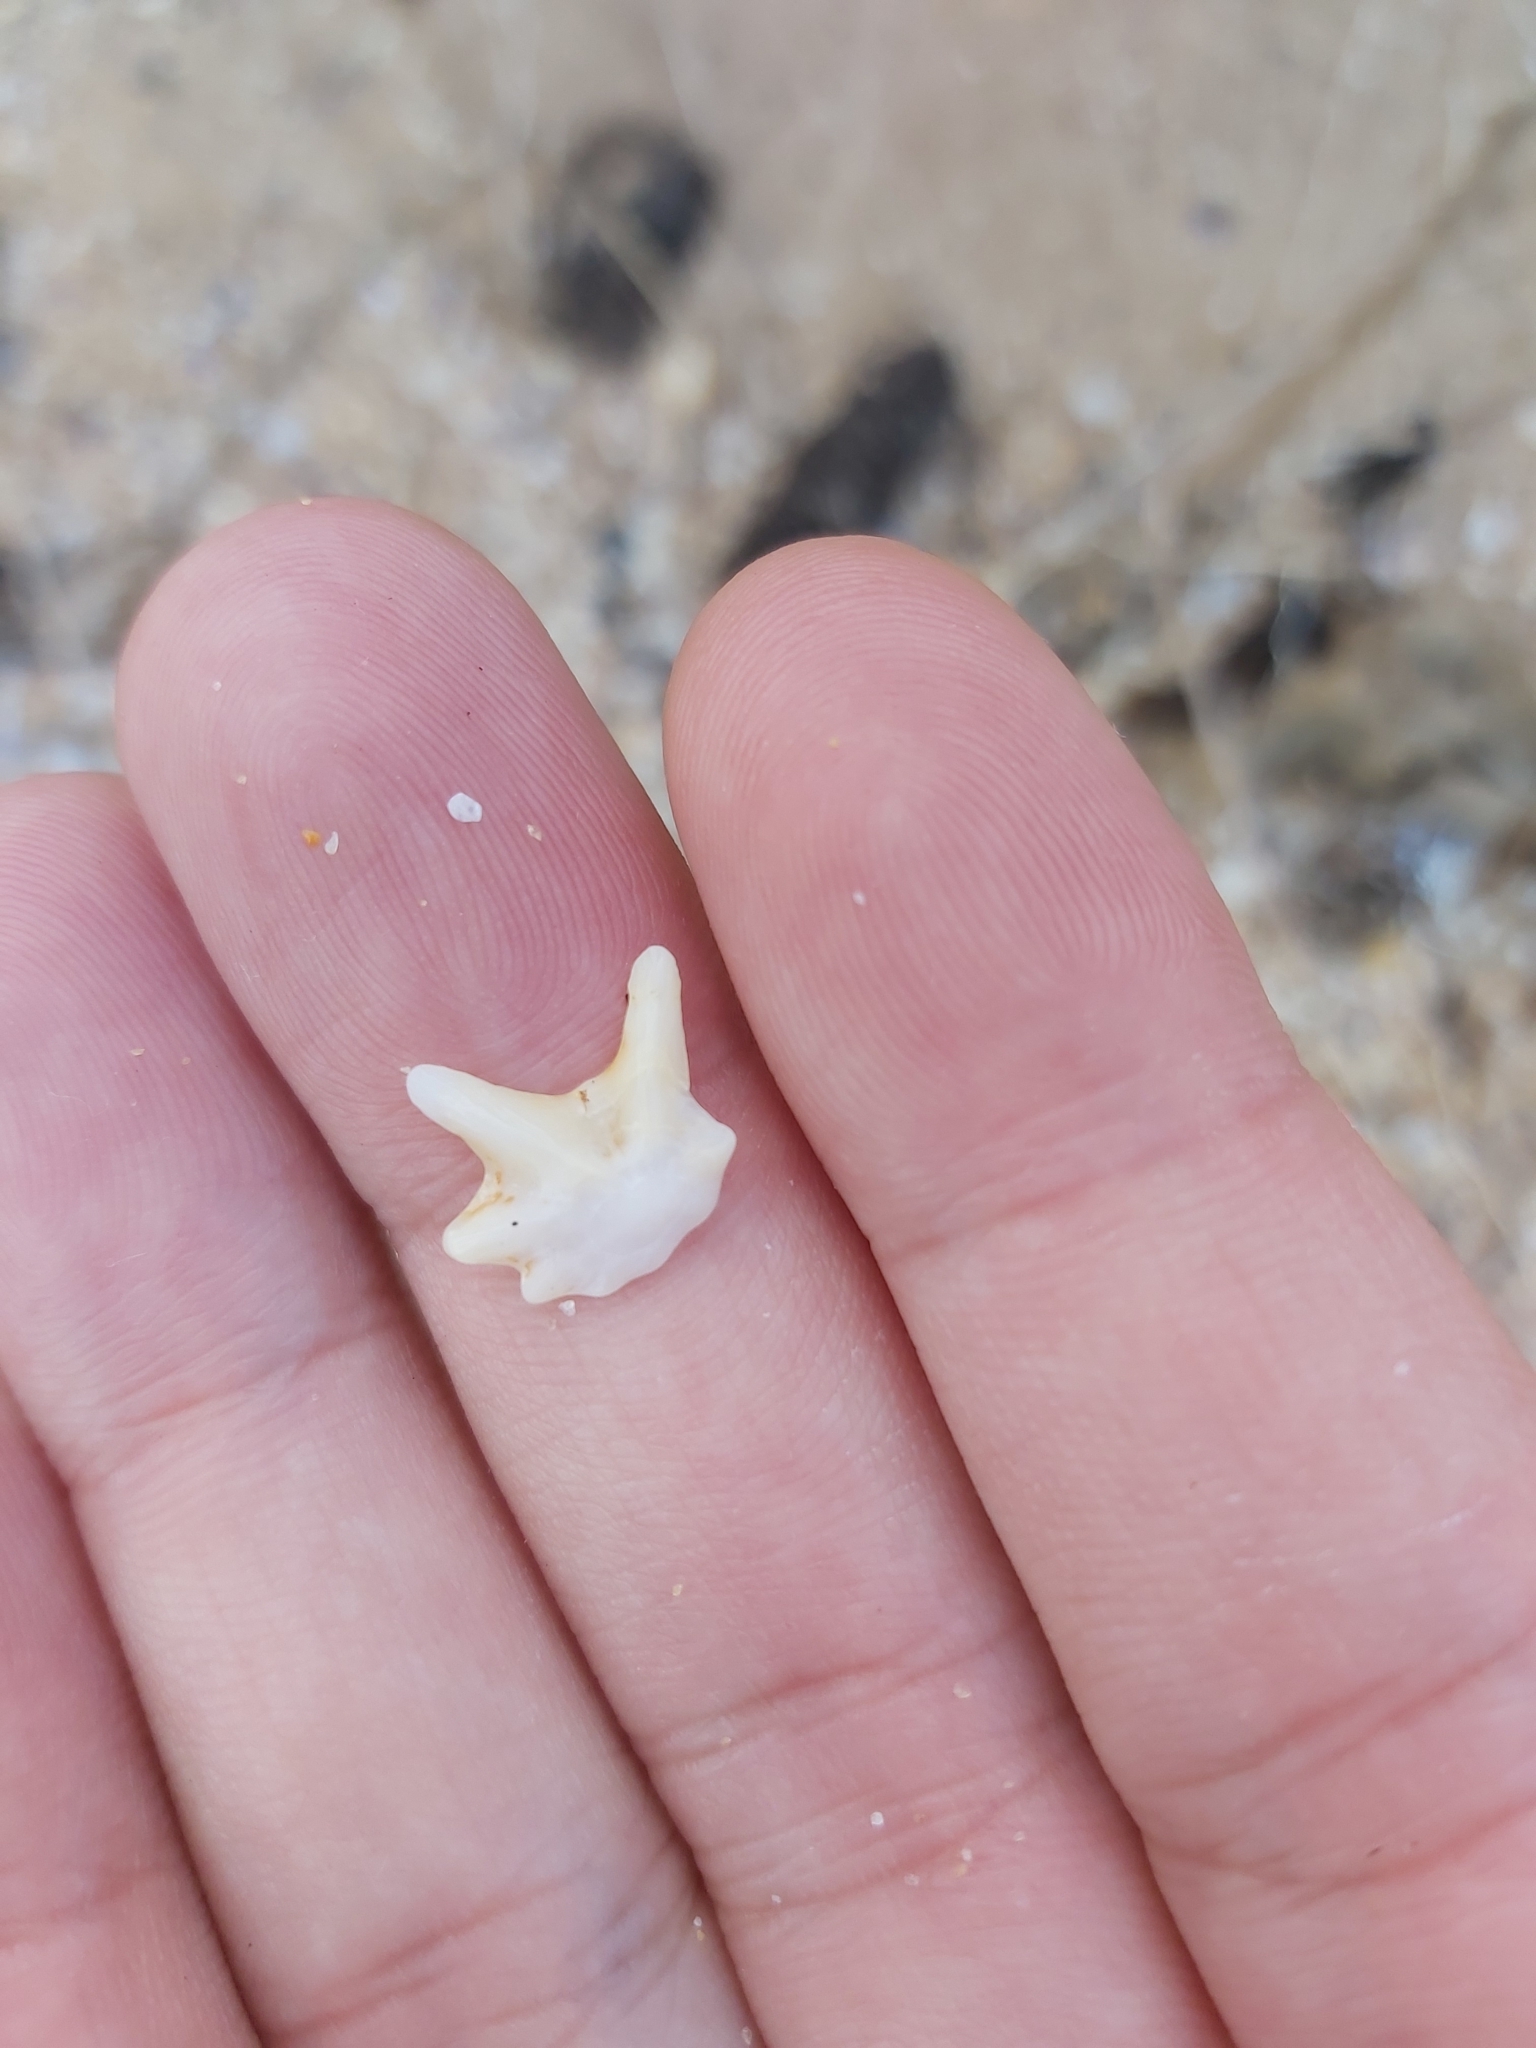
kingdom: Animalia
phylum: Mollusca
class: Gastropoda
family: Patellidae
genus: Scutellastra
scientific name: Scutellastra chapmani
